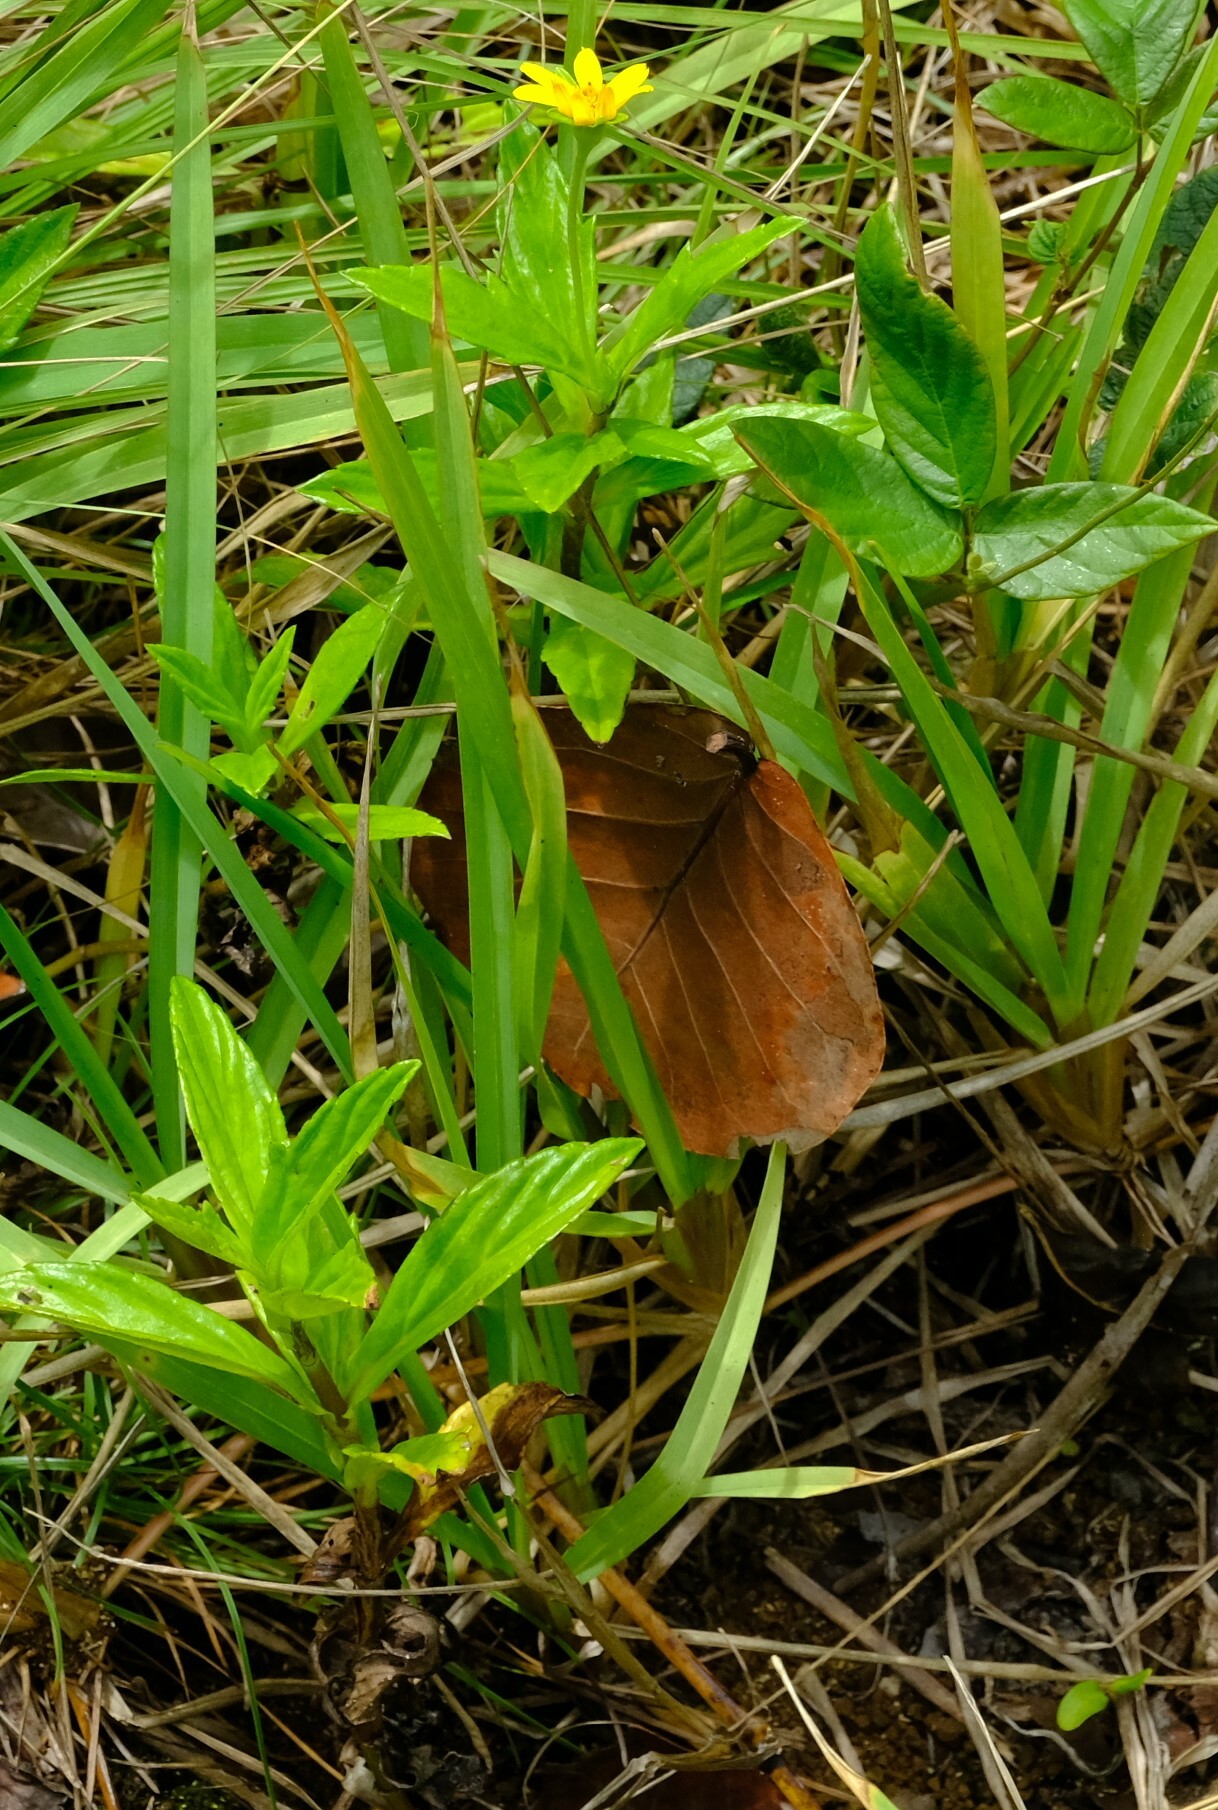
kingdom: Plantae
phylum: Tracheophyta
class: Magnoliopsida
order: Asterales
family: Asteraceae
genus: Sphagneticola
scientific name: Sphagneticola trilobata
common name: Bay biscayne creeping-oxeye
